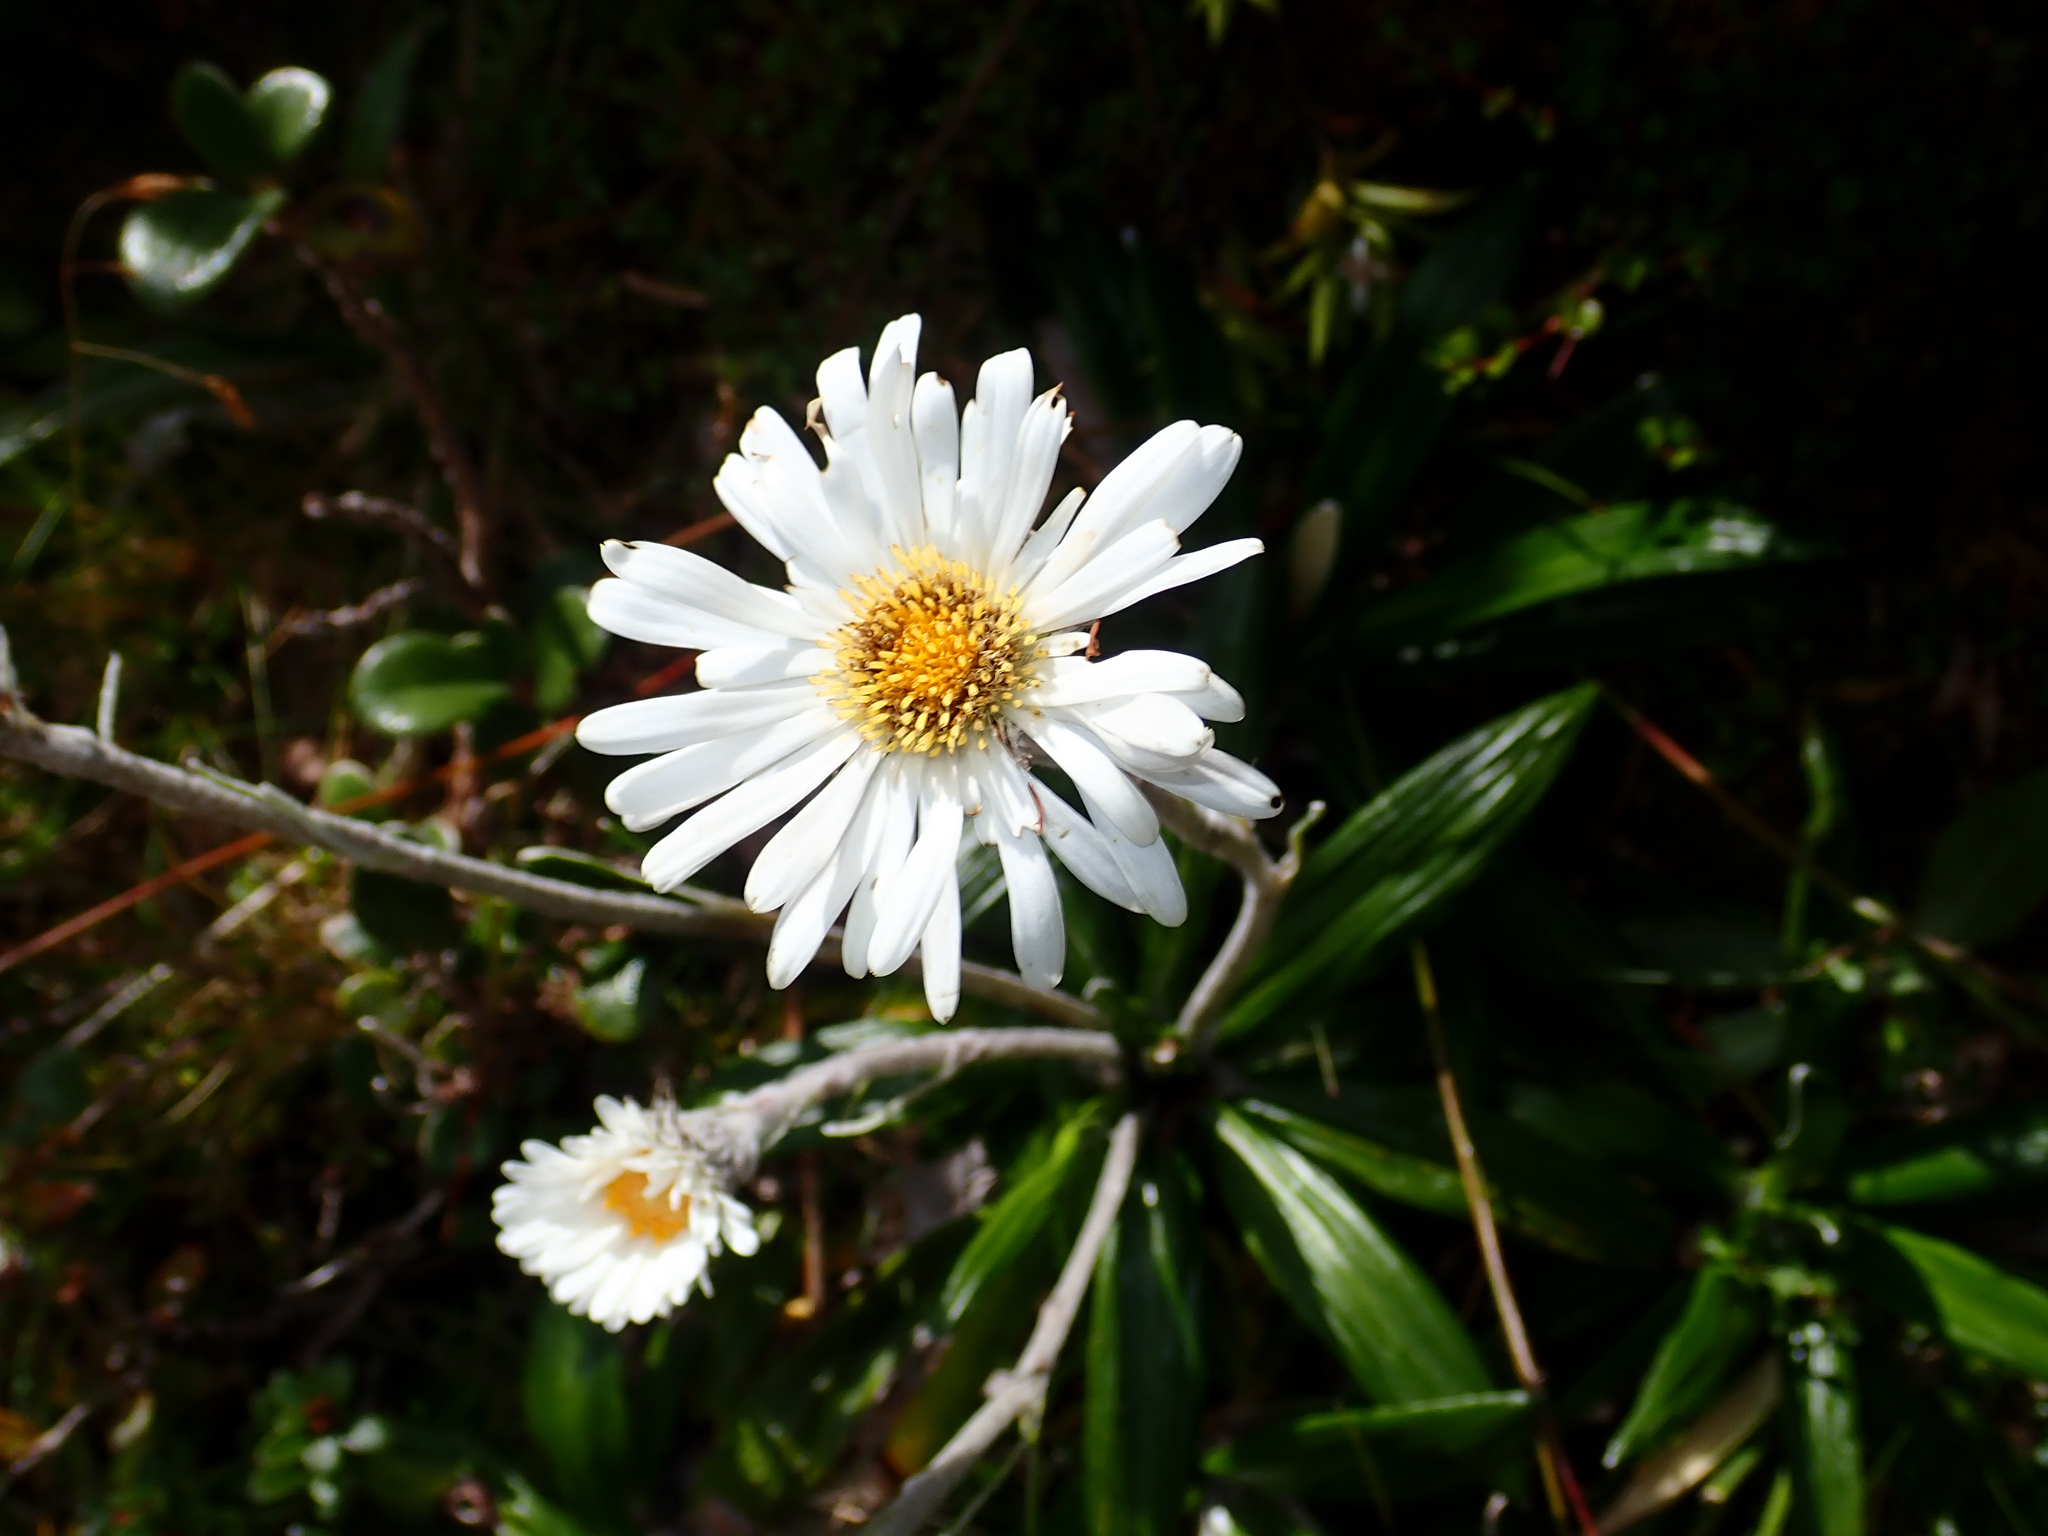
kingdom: Plantae
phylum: Tracheophyta
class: Magnoliopsida
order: Asterales
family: Asteraceae
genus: Celmisia
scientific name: Celmisia spectabilis
